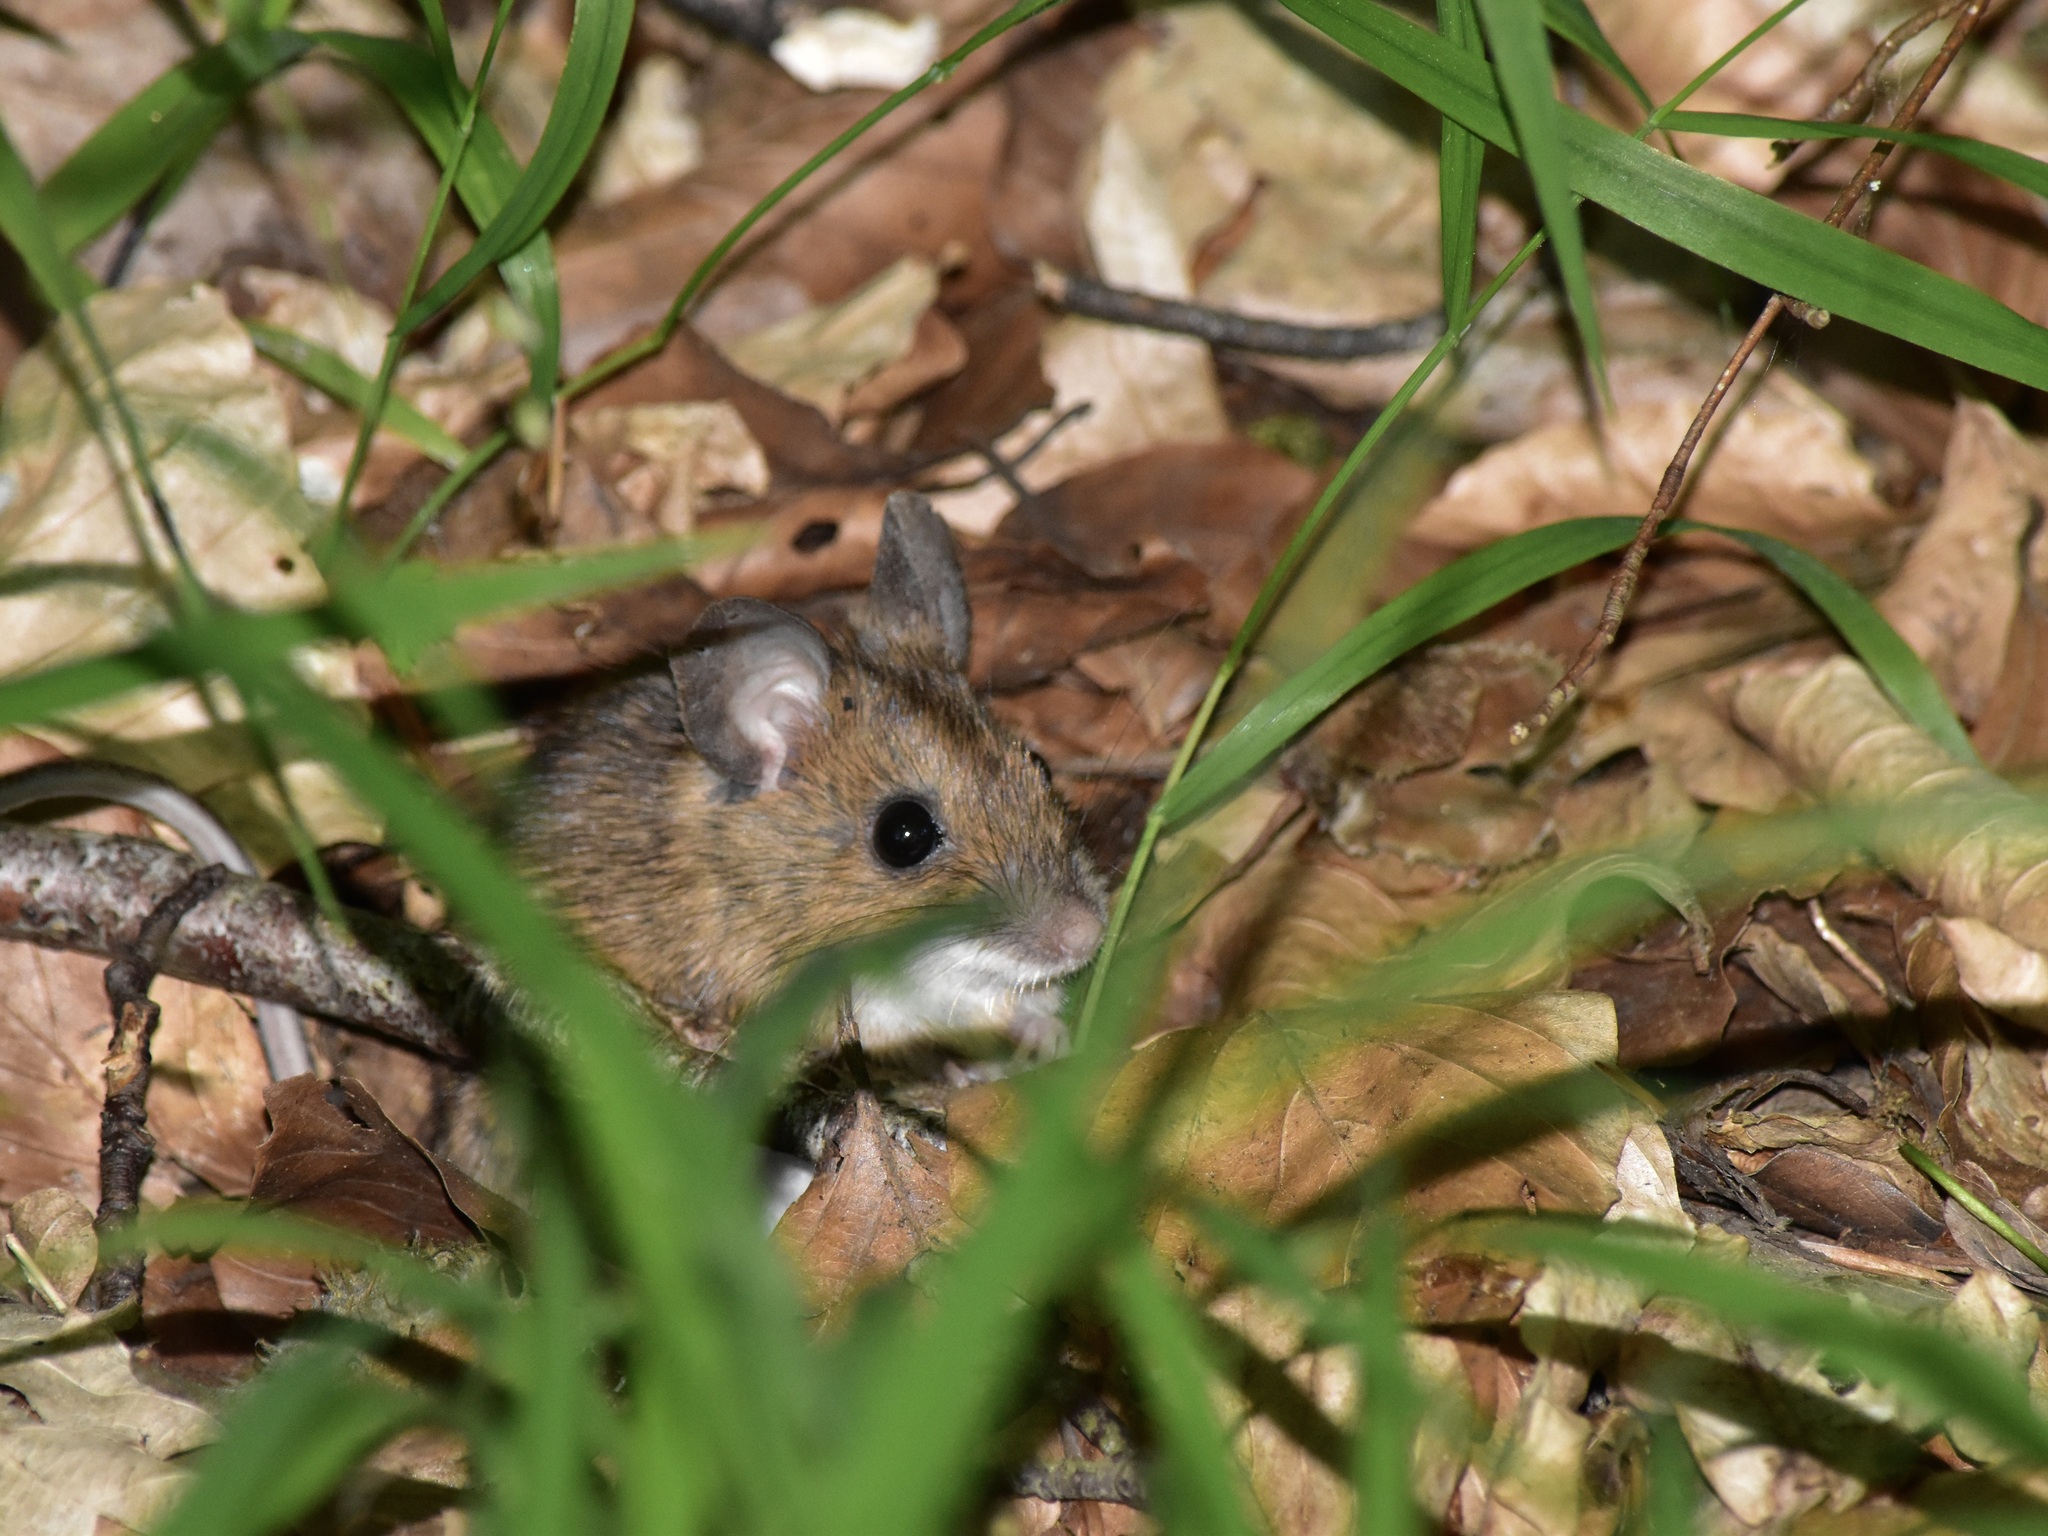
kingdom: Animalia
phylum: Chordata
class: Mammalia
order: Rodentia
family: Muridae
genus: Apodemus
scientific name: Apodemus flavicollis
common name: Yellow-necked field mouse
